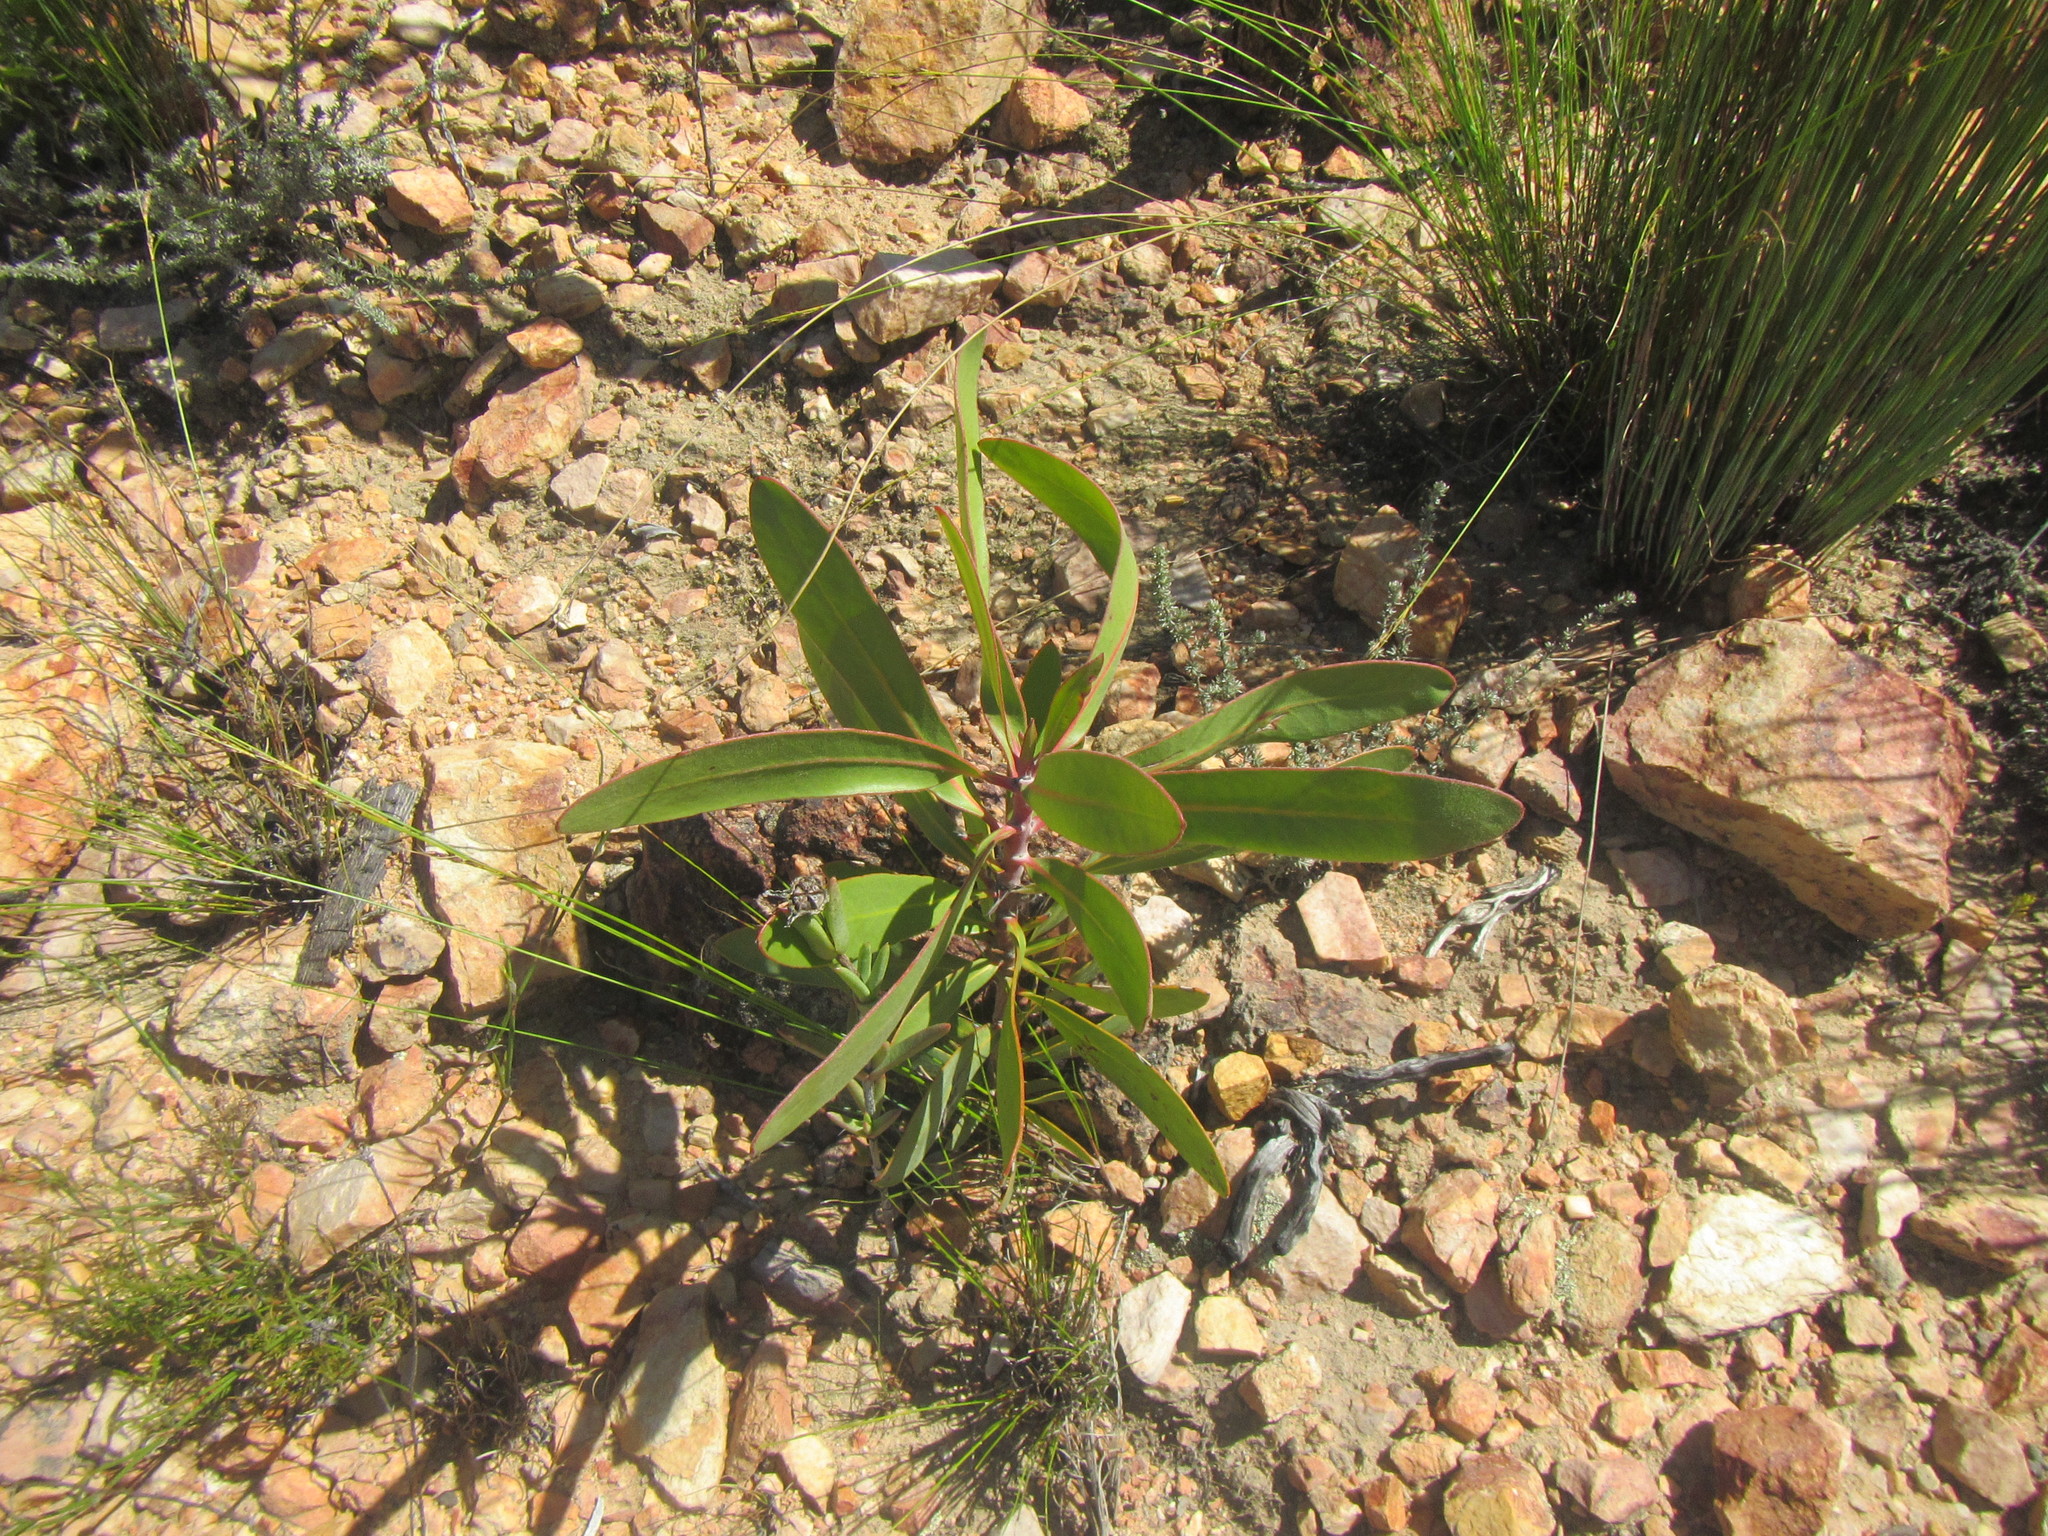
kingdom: Plantae
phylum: Tracheophyta
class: Magnoliopsida
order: Proteales
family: Proteaceae
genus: Protea
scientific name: Protea lorifolia
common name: Strap-leaved protea
